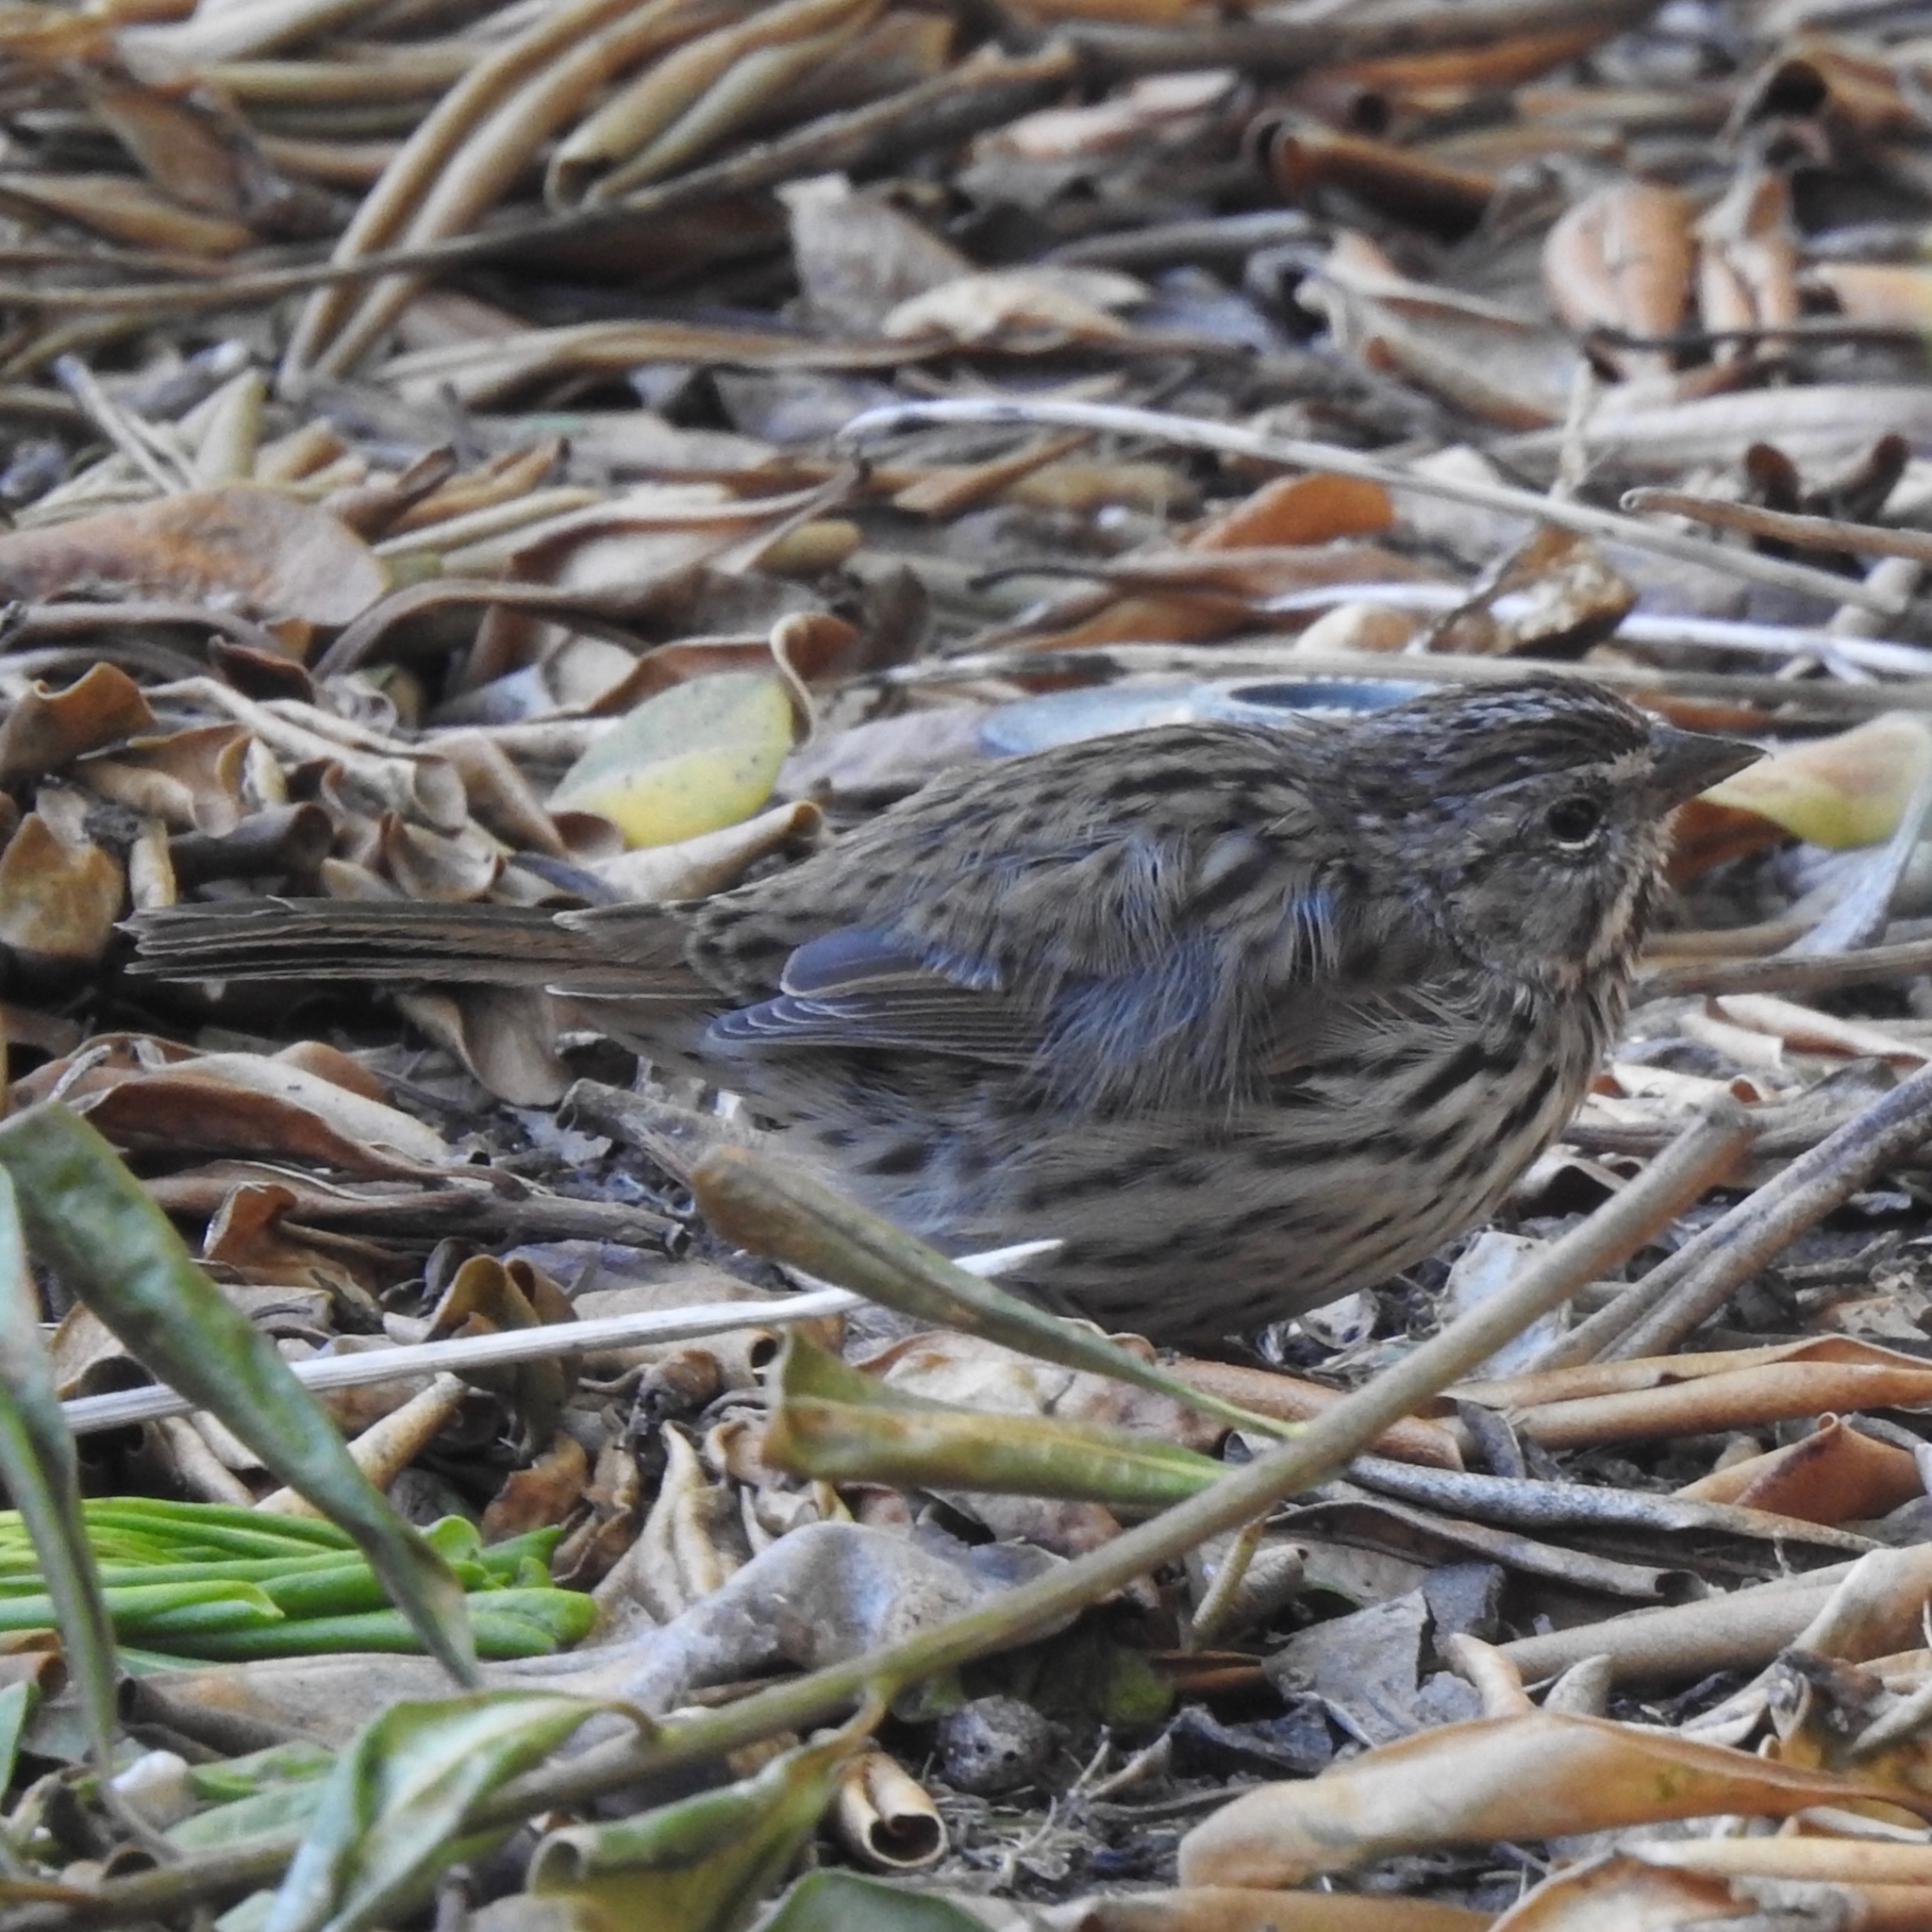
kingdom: Animalia
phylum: Chordata
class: Aves
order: Passeriformes
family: Passerellidae
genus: Melospiza
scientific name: Melospiza melodia
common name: Song sparrow
